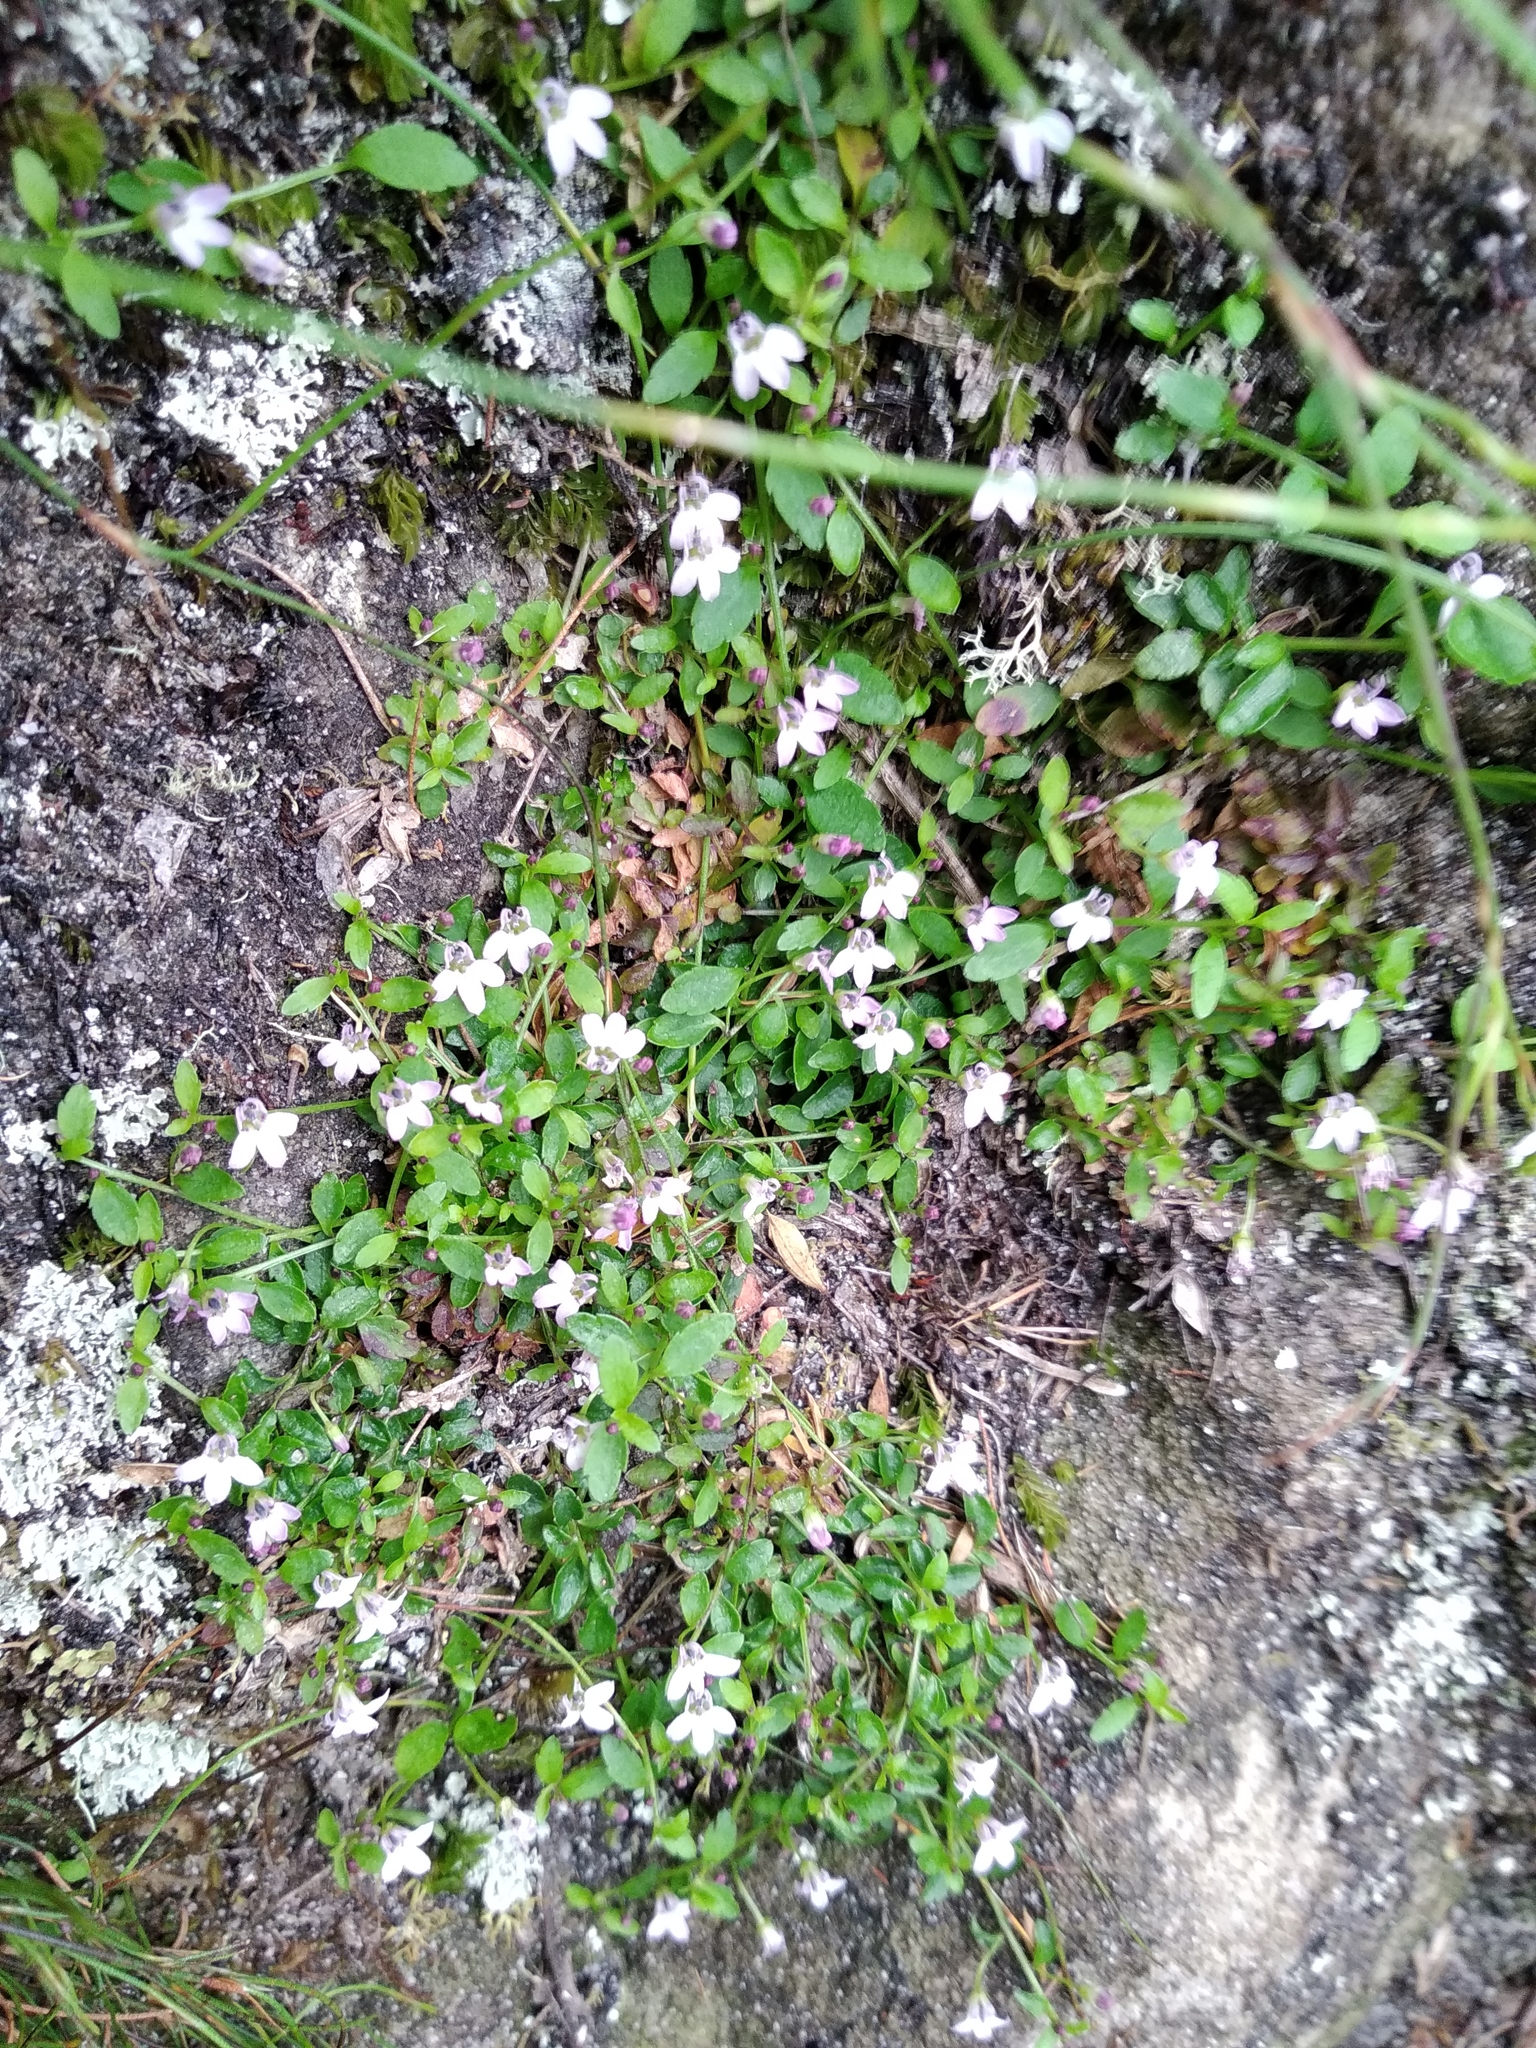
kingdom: Plantae
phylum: Tracheophyta
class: Magnoliopsida
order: Asterales
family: Campanulaceae
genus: Unigenes
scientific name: Unigenes humifusa
